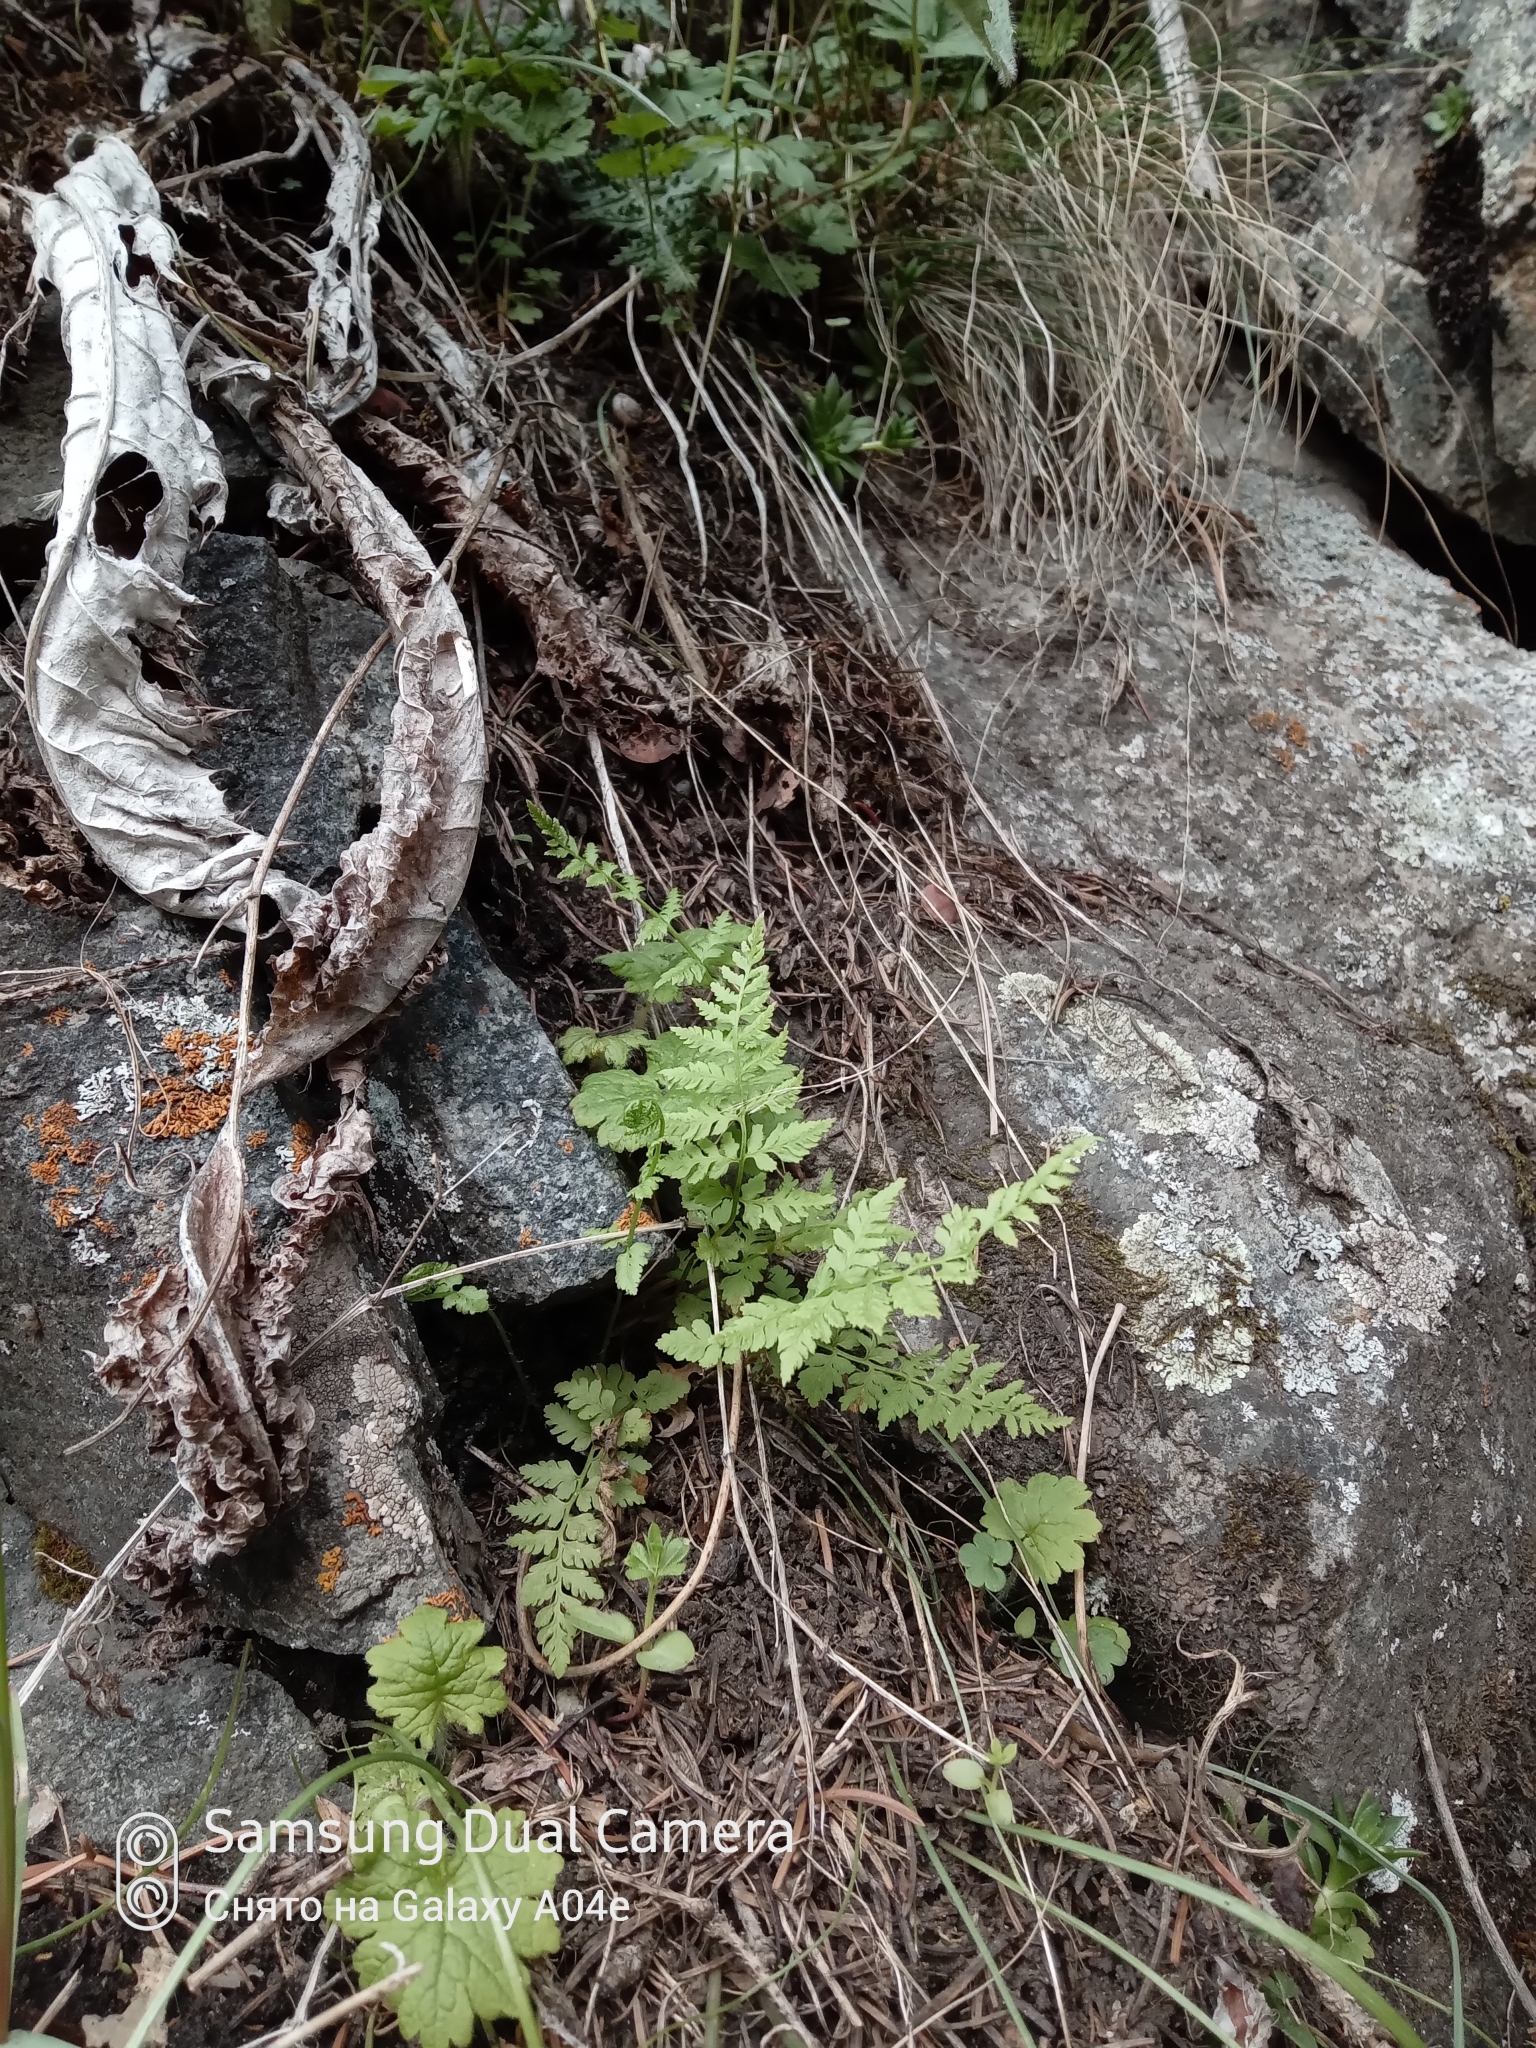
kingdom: Plantae
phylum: Tracheophyta
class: Polypodiopsida
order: Polypodiales
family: Cystopteridaceae
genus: Cystopteris
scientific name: Cystopteris fragilis
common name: Brittle bladder fern
